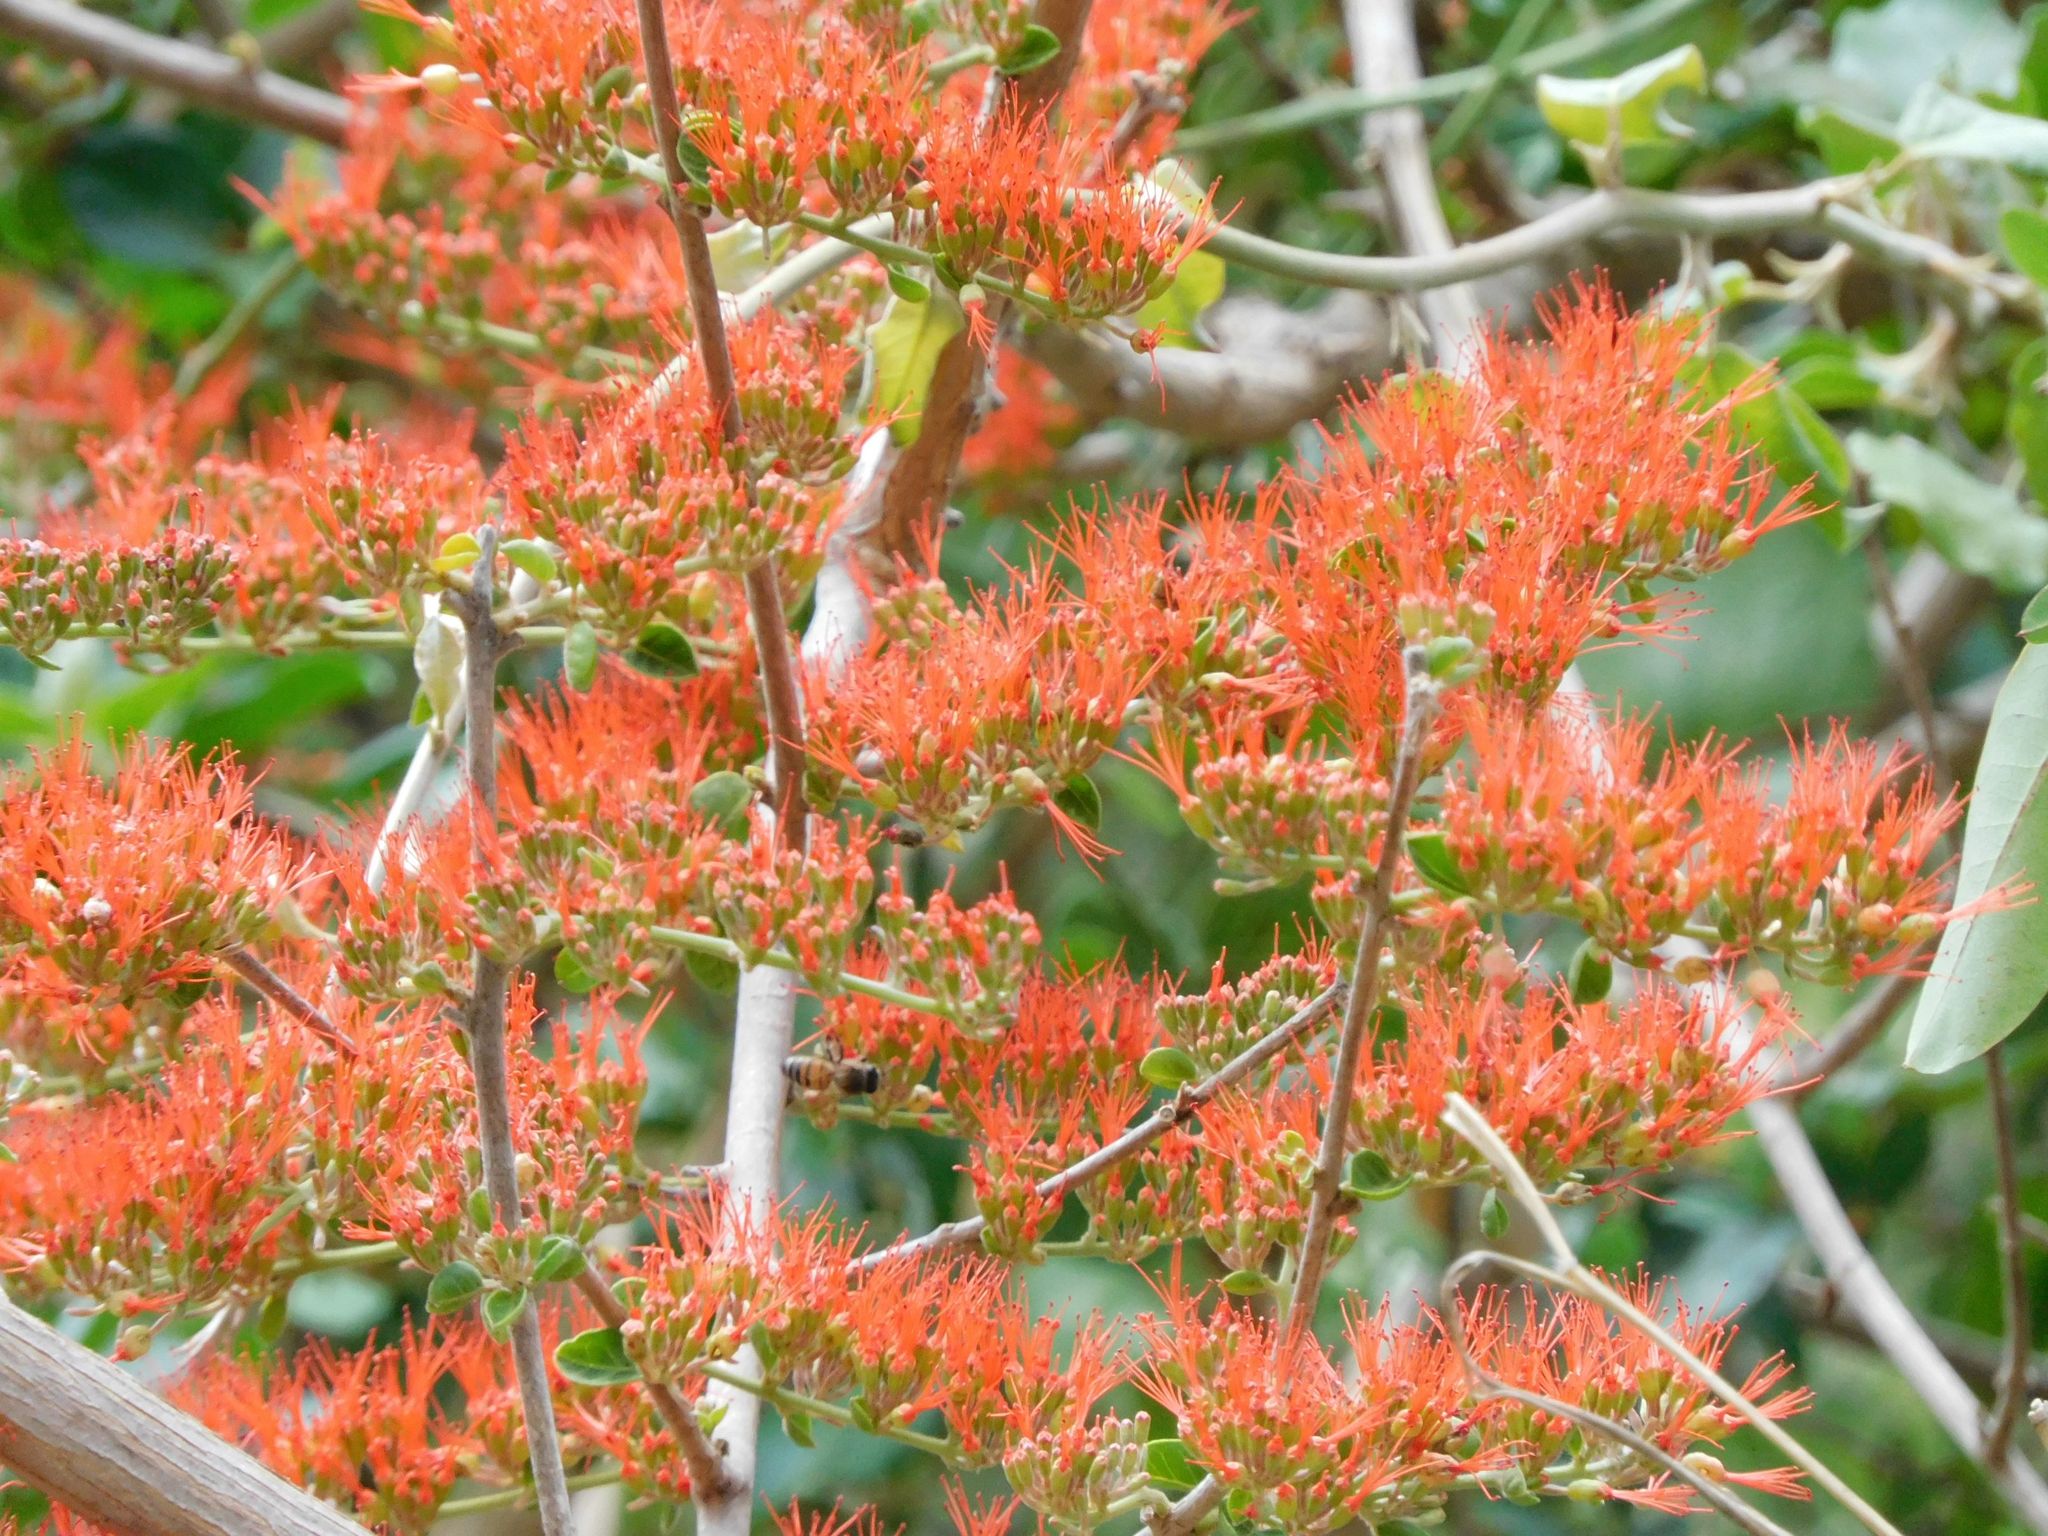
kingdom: Plantae
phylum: Tracheophyta
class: Magnoliopsida
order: Myrtales
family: Combretaceae
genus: Combretum
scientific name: Combretum microphyllum
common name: Burningbush
